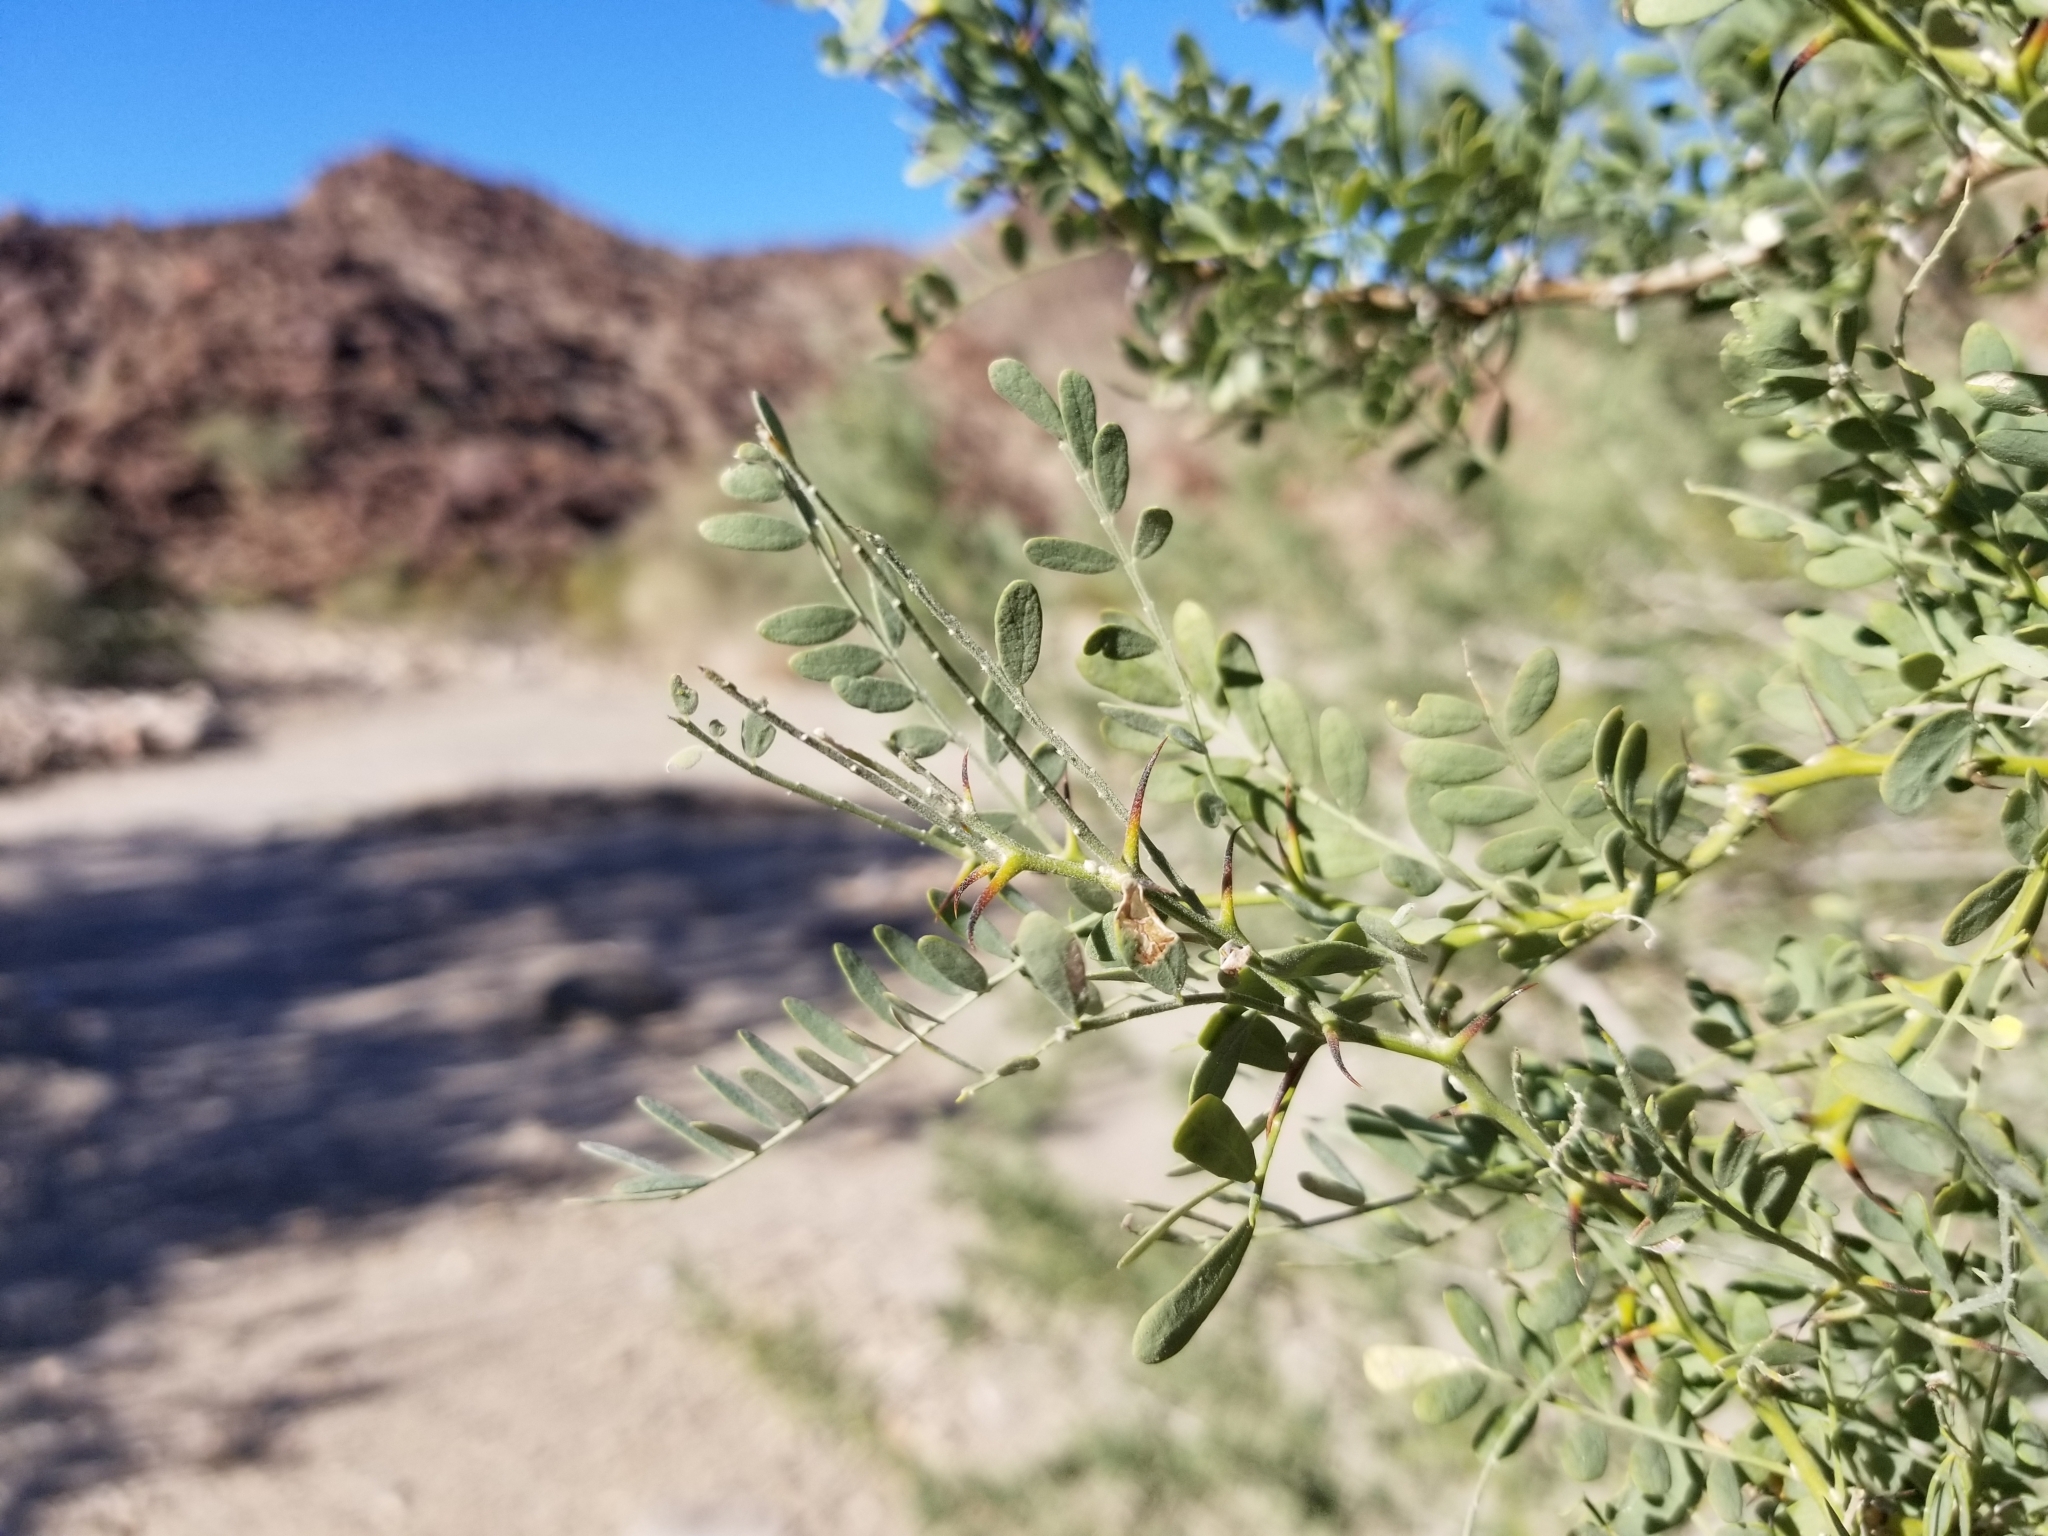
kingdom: Plantae
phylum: Tracheophyta
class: Magnoliopsida
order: Fabales
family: Fabaceae
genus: Olneya
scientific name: Olneya tesota
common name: Desert ironwood
